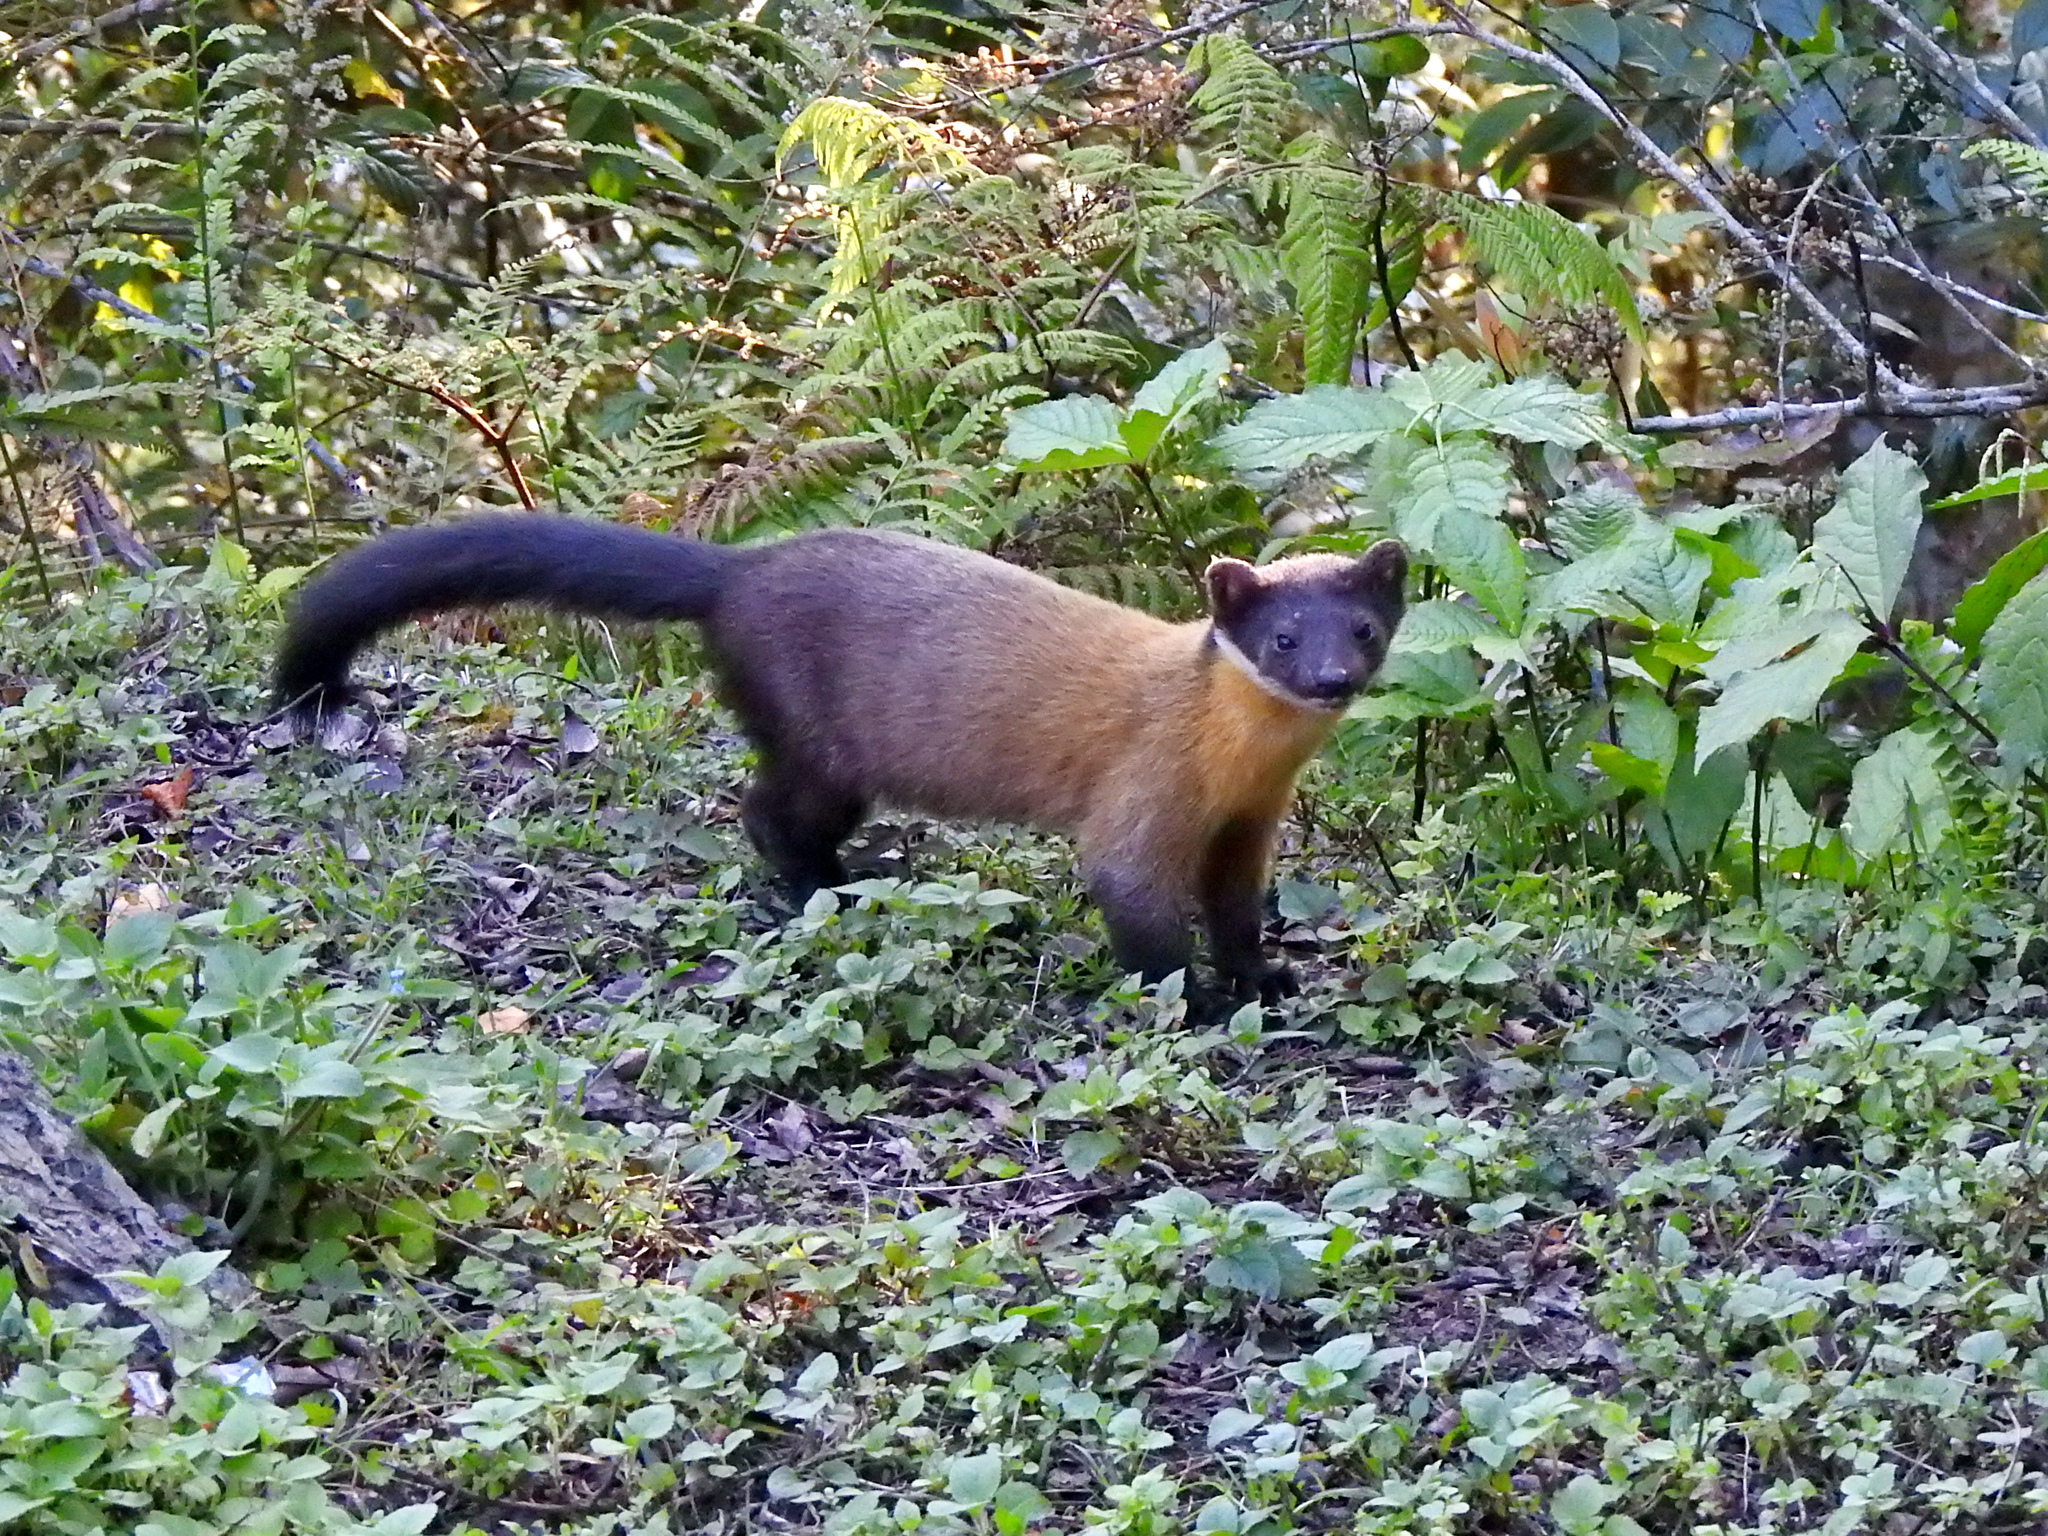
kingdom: Animalia
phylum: Chordata
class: Mammalia
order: Carnivora
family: Mustelidae
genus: Martes
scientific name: Martes flavigula
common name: Yellow-throated marten
